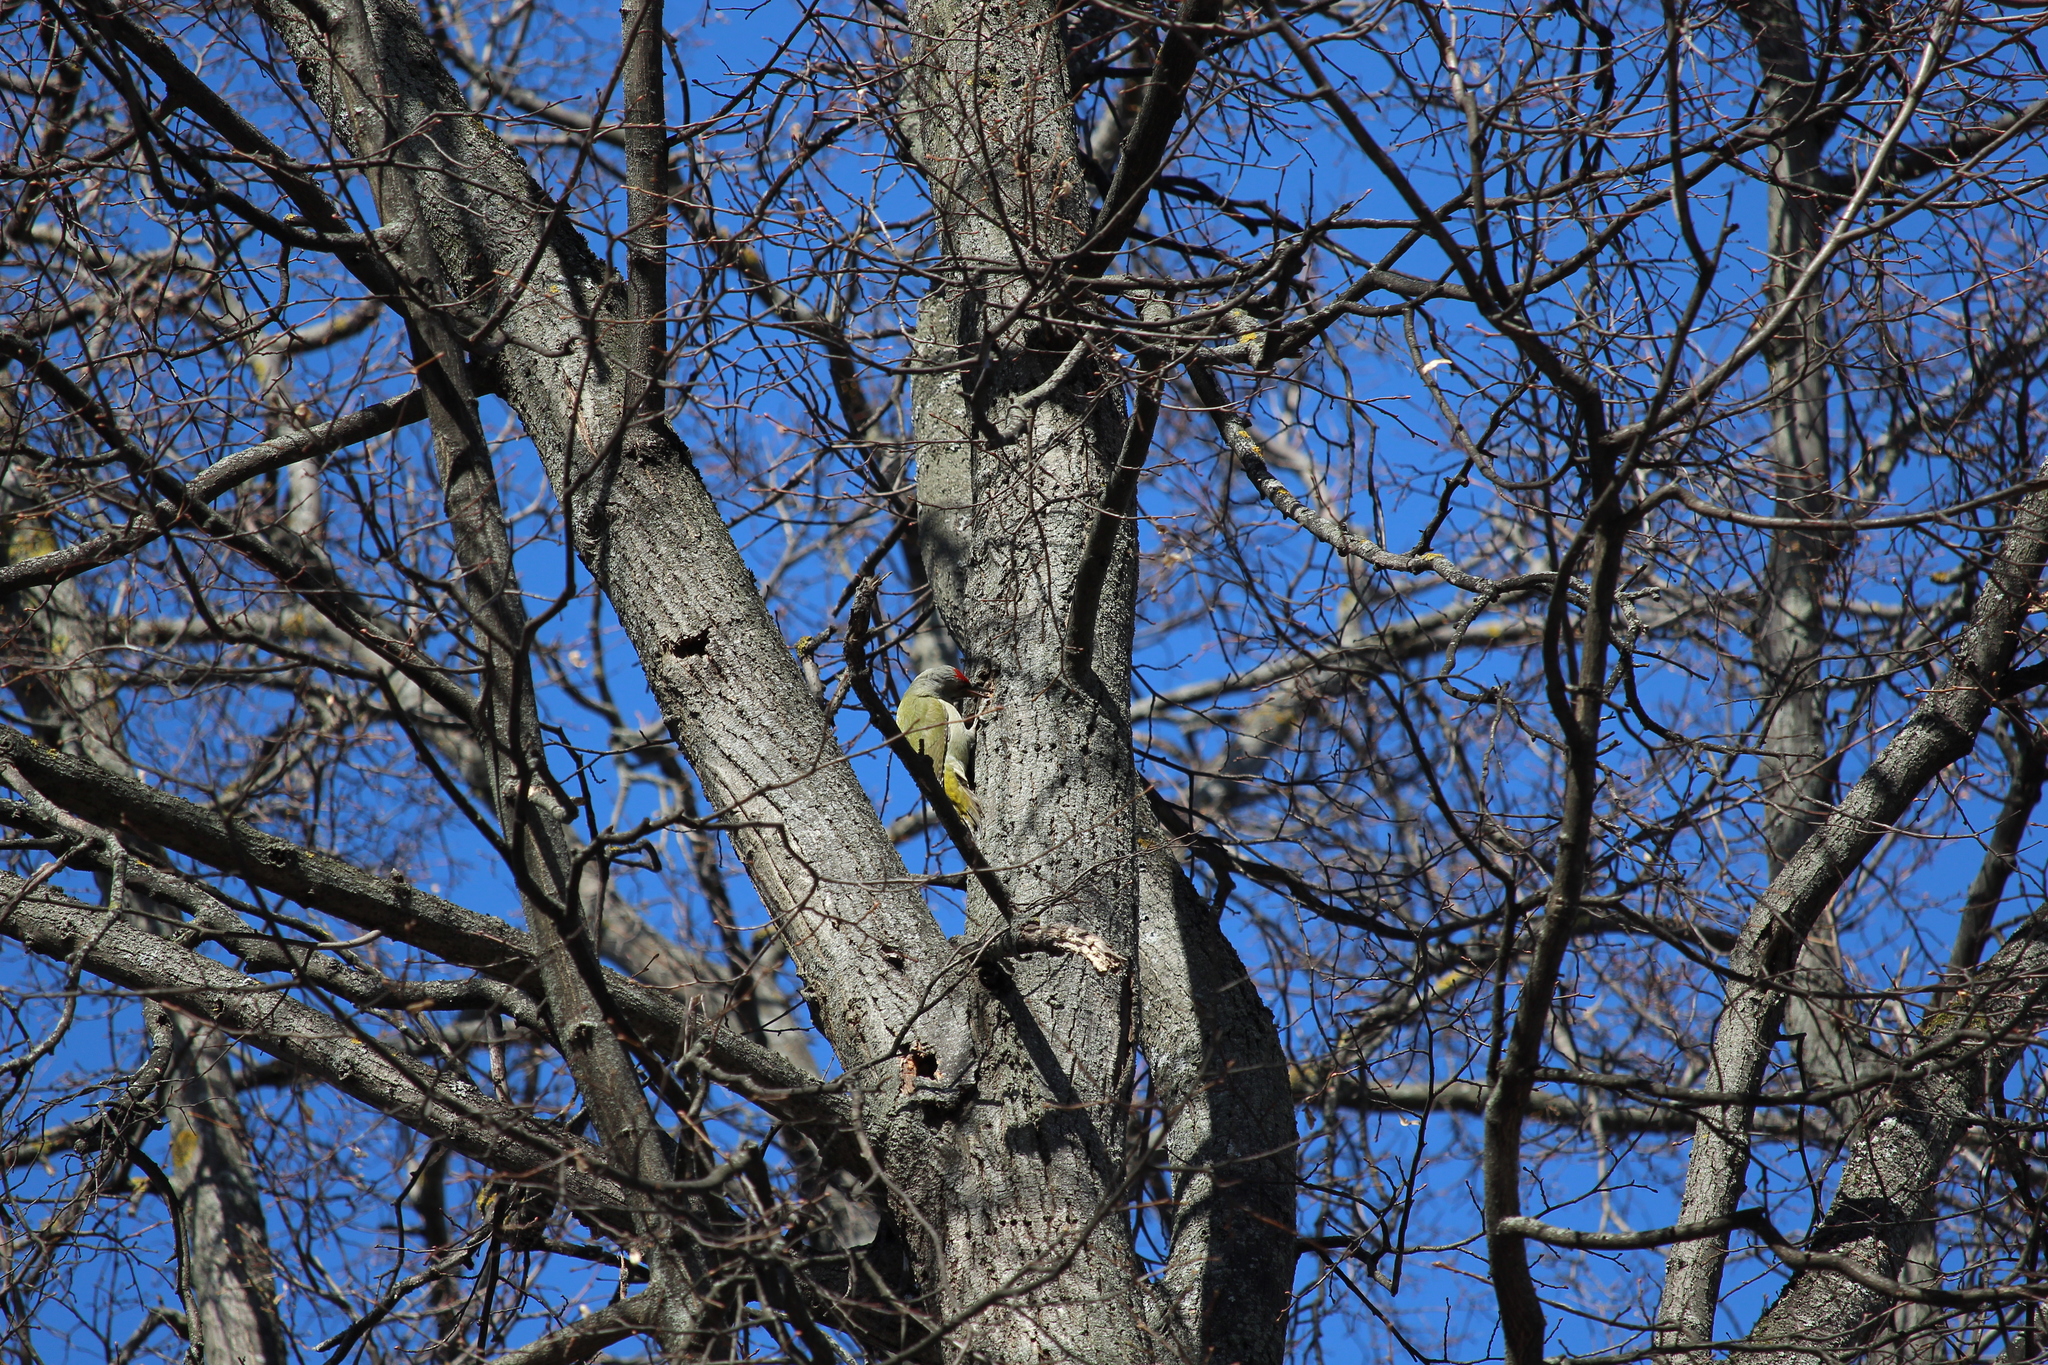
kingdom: Animalia
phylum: Chordata
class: Aves
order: Piciformes
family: Picidae
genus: Picus
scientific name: Picus canus
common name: Grey-headed woodpecker
